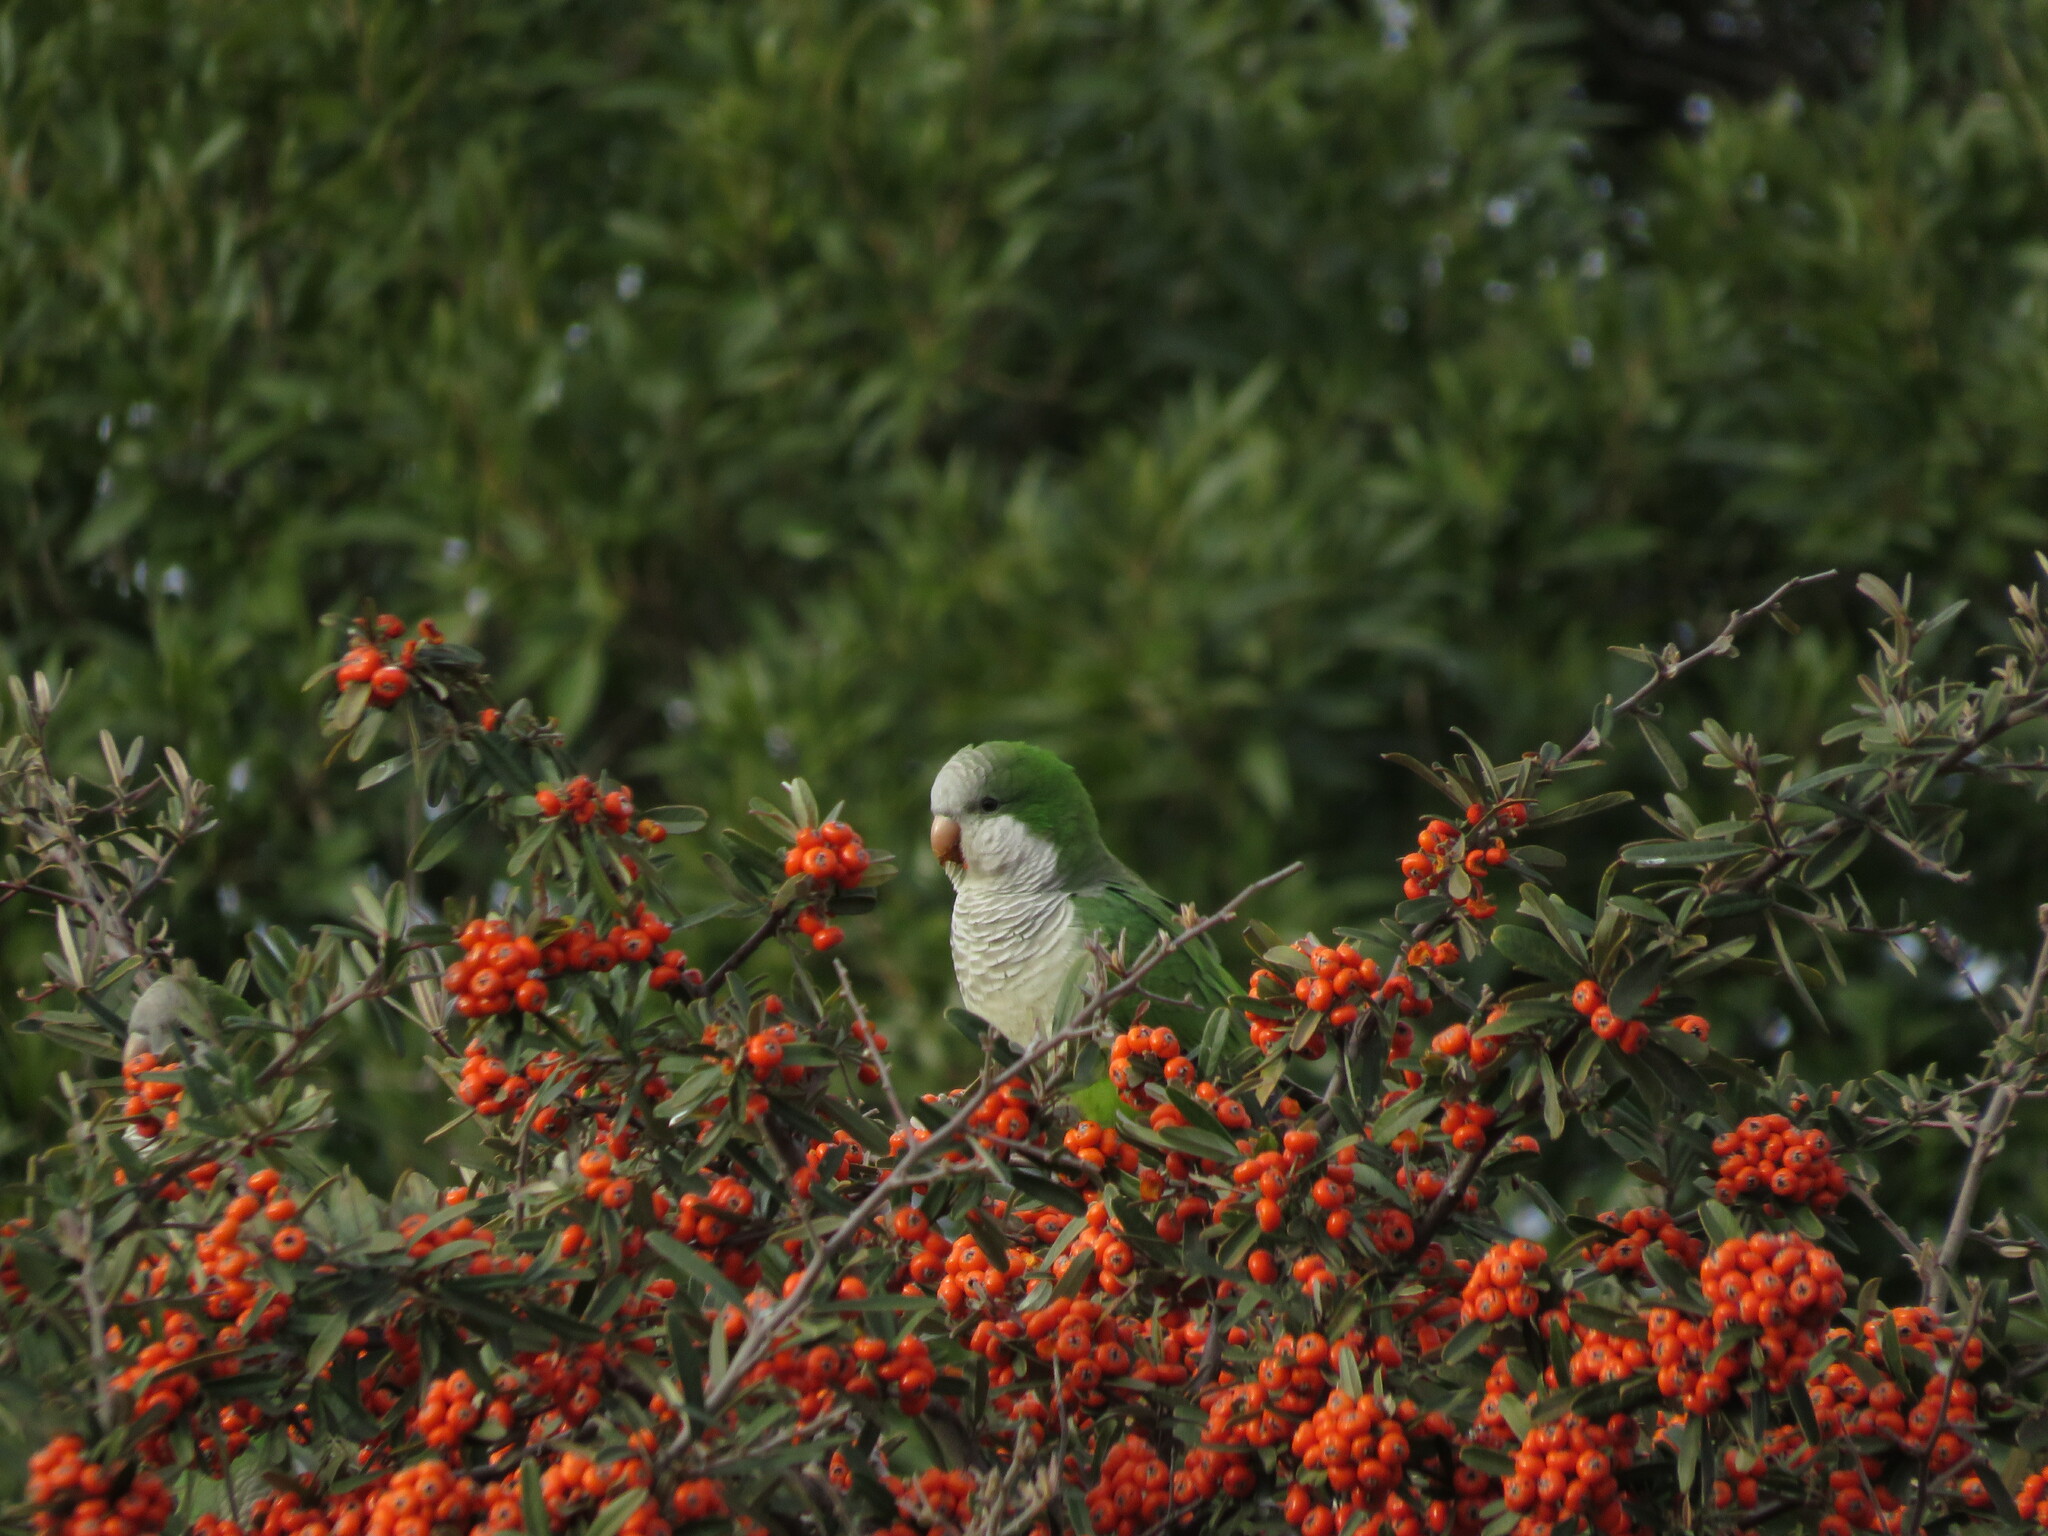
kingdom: Animalia
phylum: Chordata
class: Aves
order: Psittaciformes
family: Psittacidae
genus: Myiopsitta
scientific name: Myiopsitta monachus
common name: Monk parakeet
